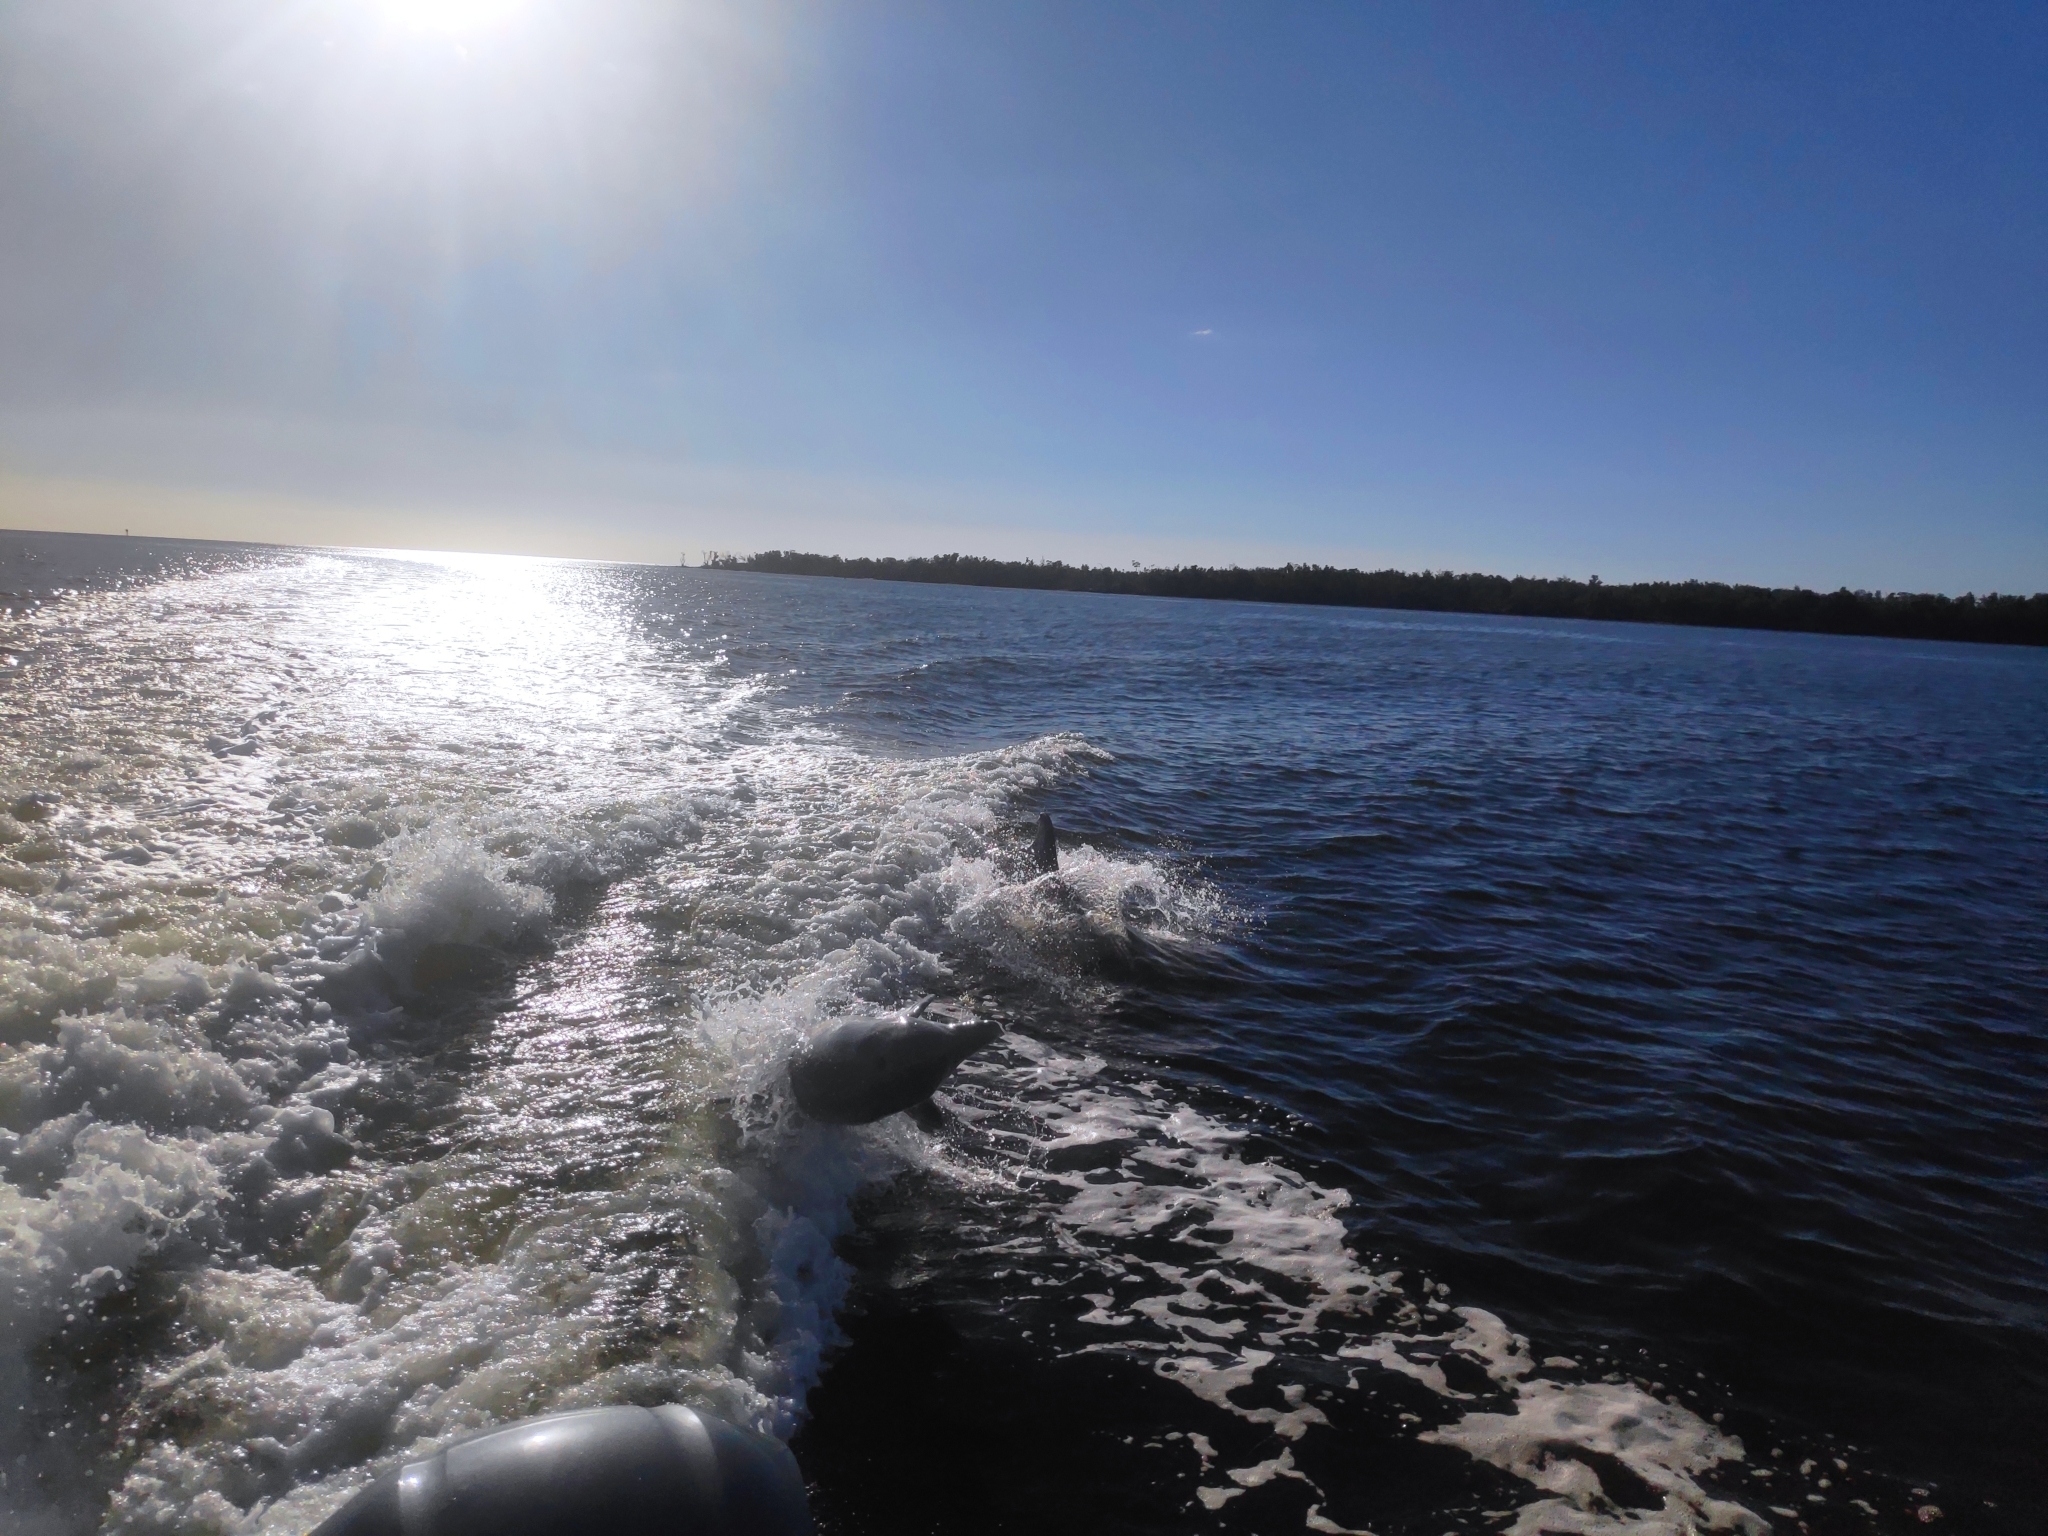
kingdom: Animalia
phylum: Chordata
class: Mammalia
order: Cetacea
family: Delphinidae
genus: Tursiops
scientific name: Tursiops truncatus
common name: Bottlenose dolphin
